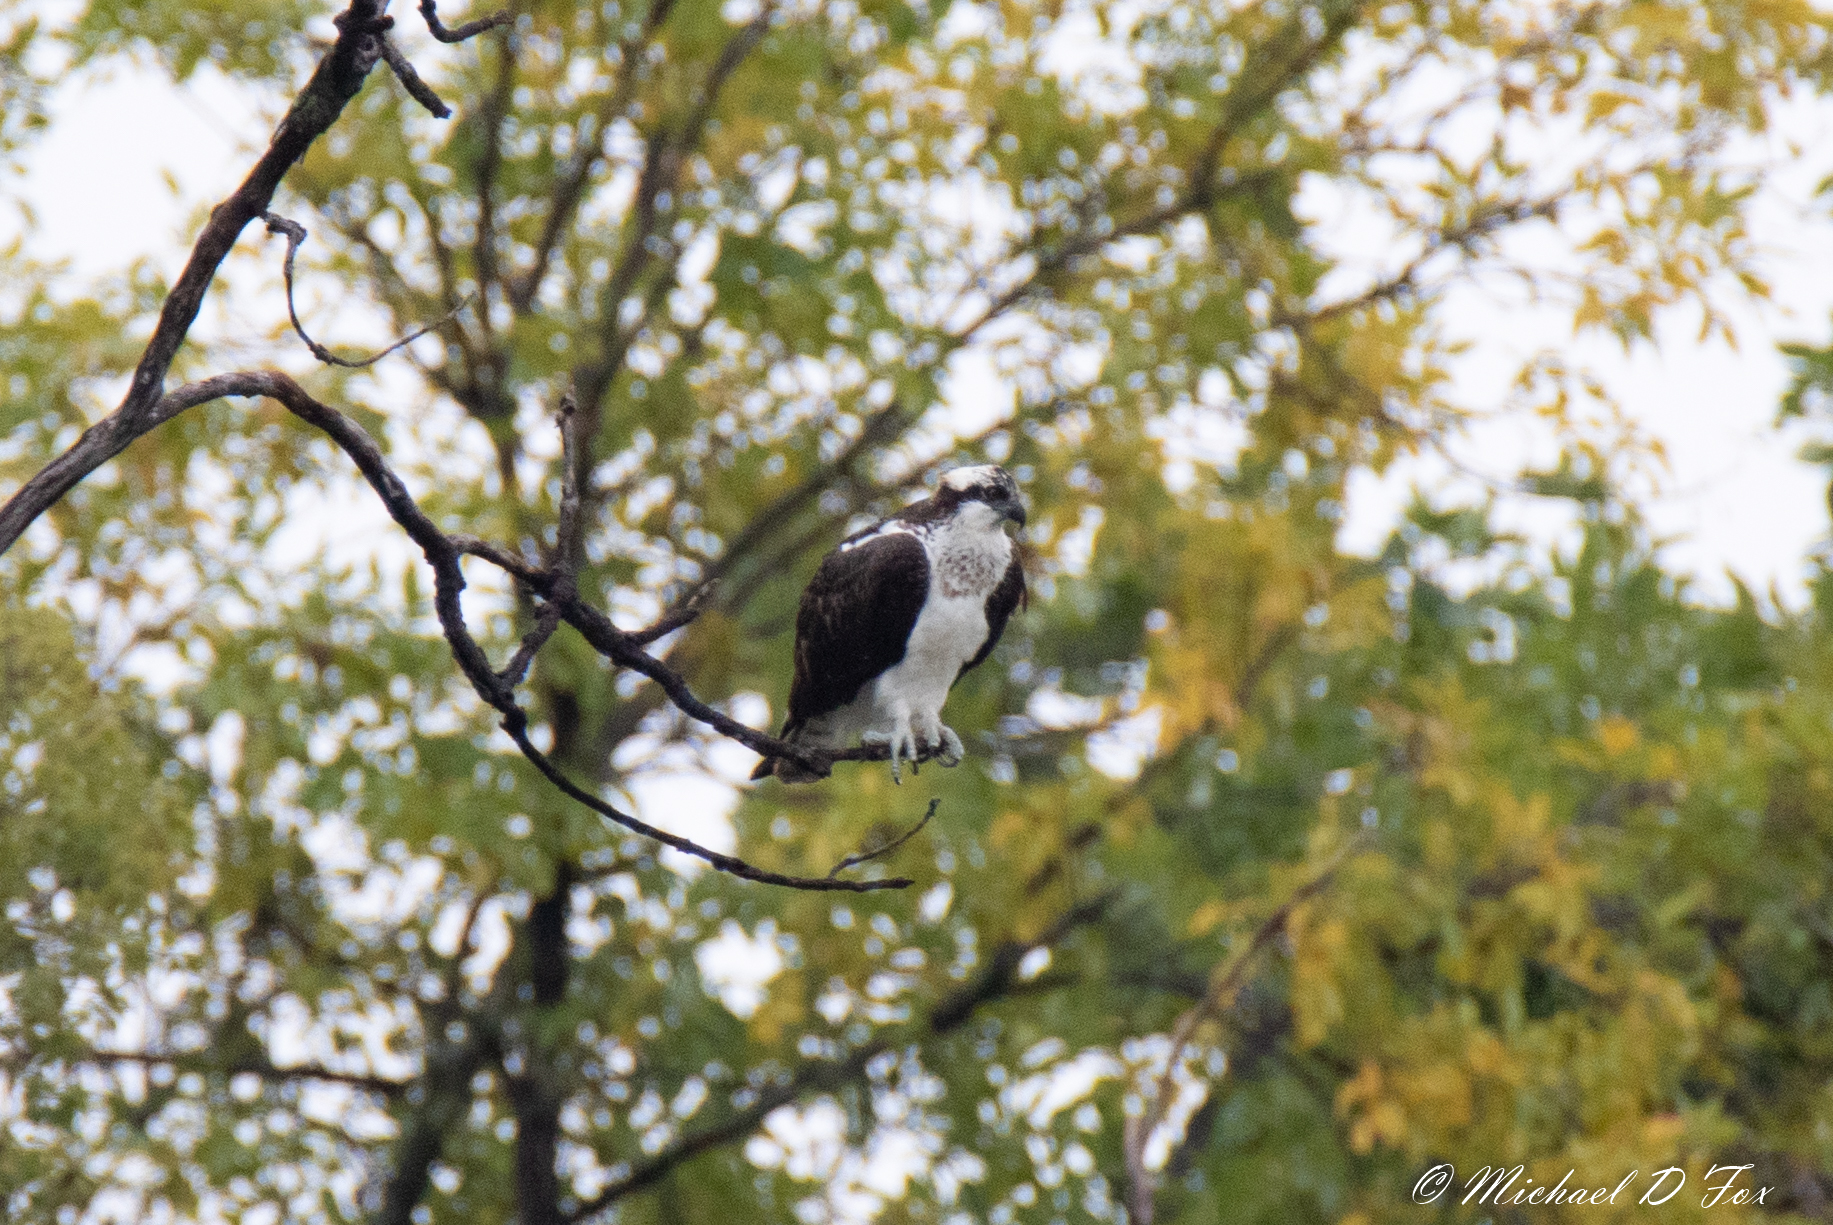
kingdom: Animalia
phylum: Chordata
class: Aves
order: Accipitriformes
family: Pandionidae
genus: Pandion
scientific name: Pandion haliaetus
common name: Osprey
